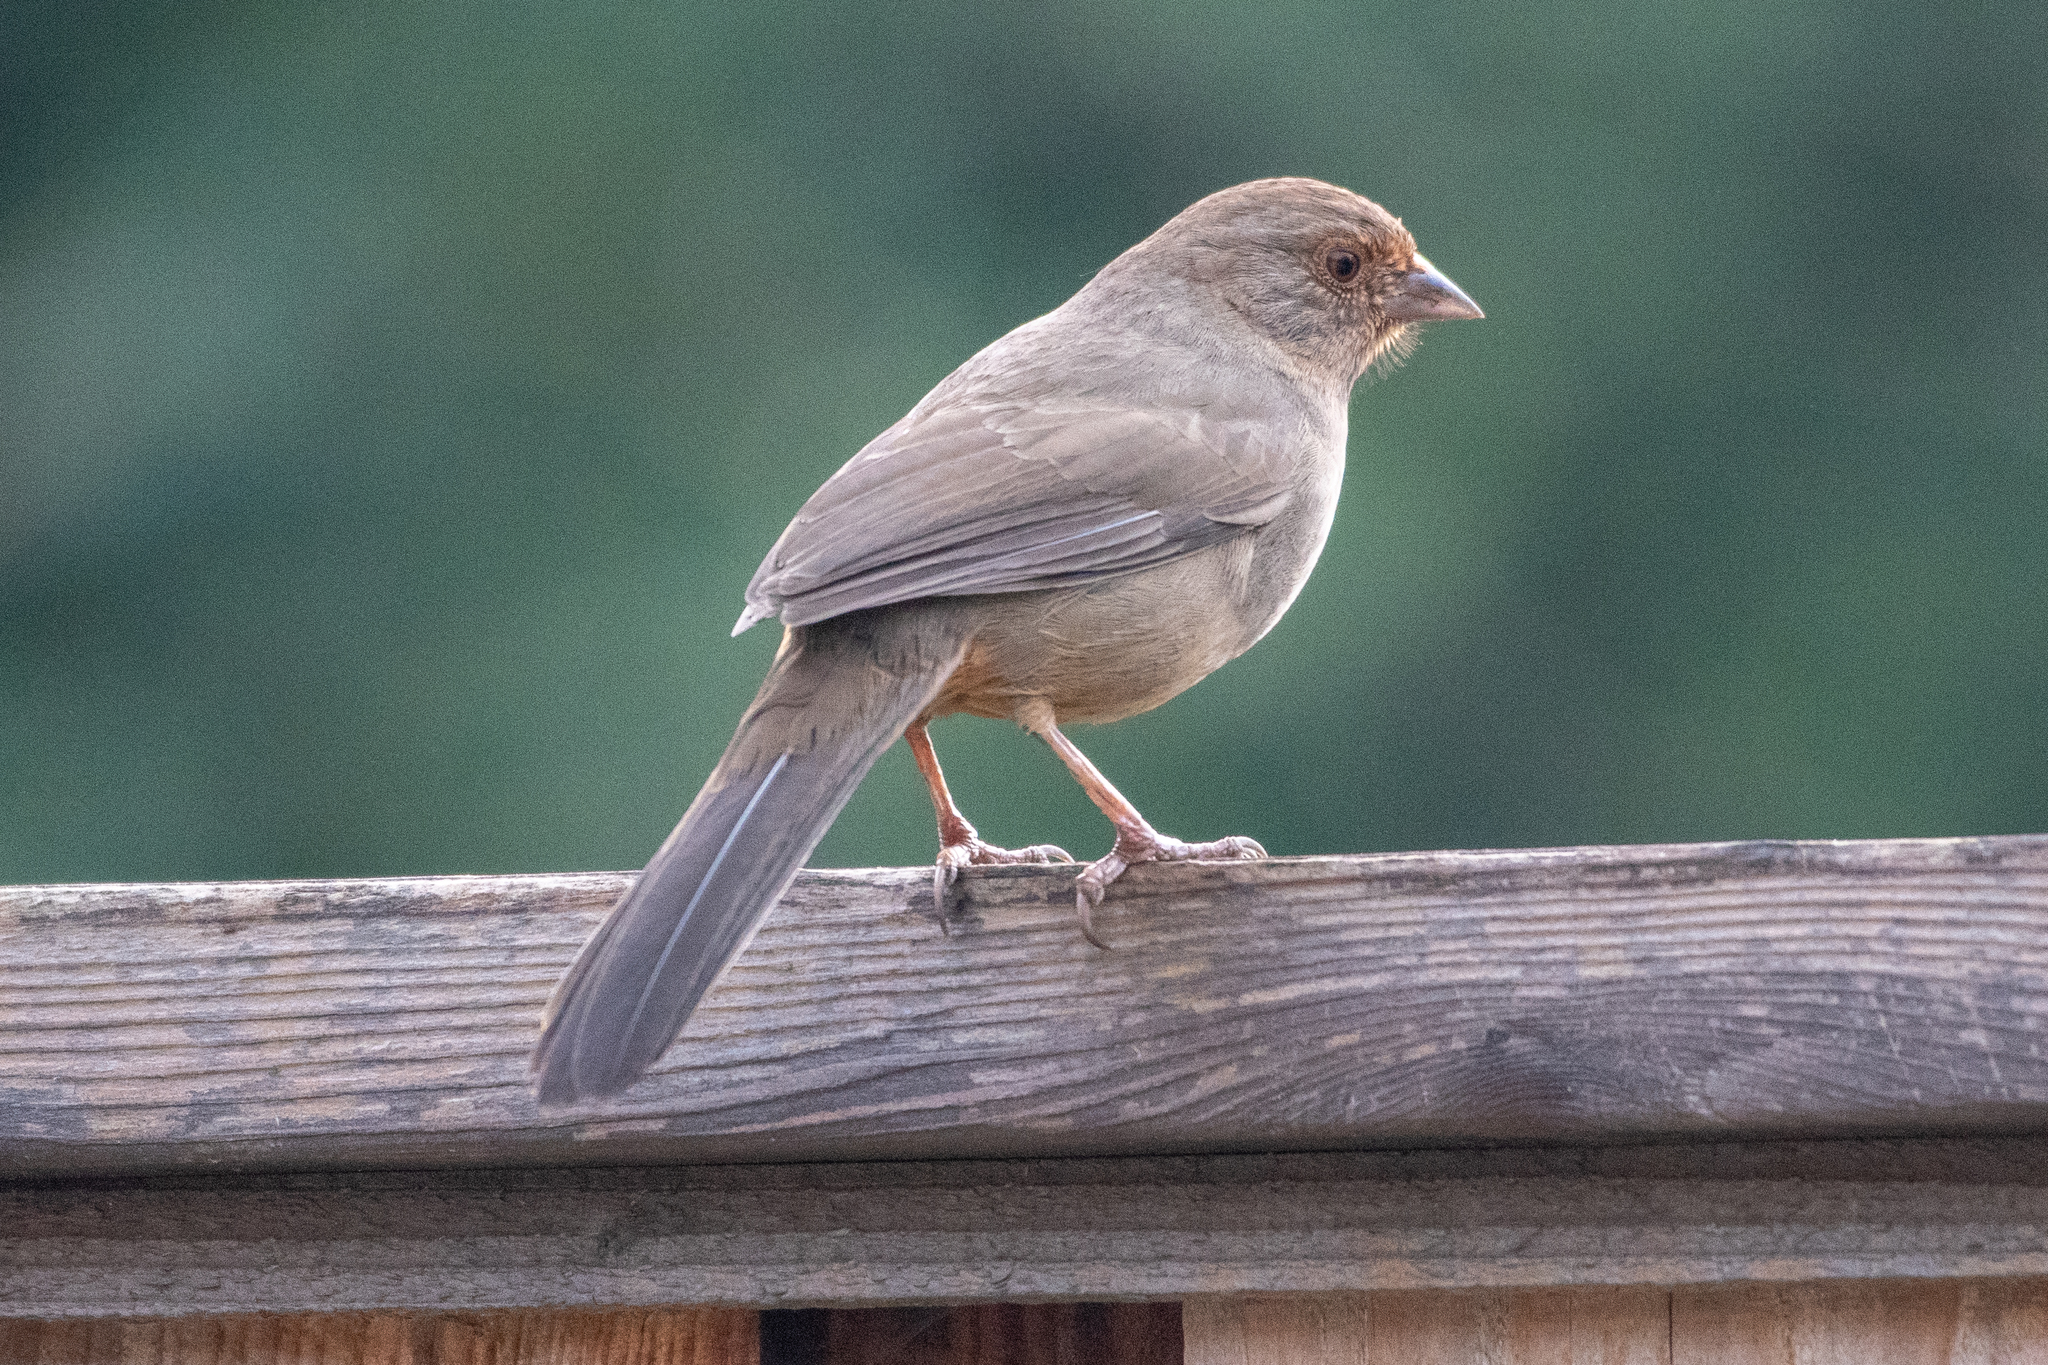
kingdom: Animalia
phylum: Chordata
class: Aves
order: Passeriformes
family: Passerellidae
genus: Melozone
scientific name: Melozone crissalis
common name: California towhee
